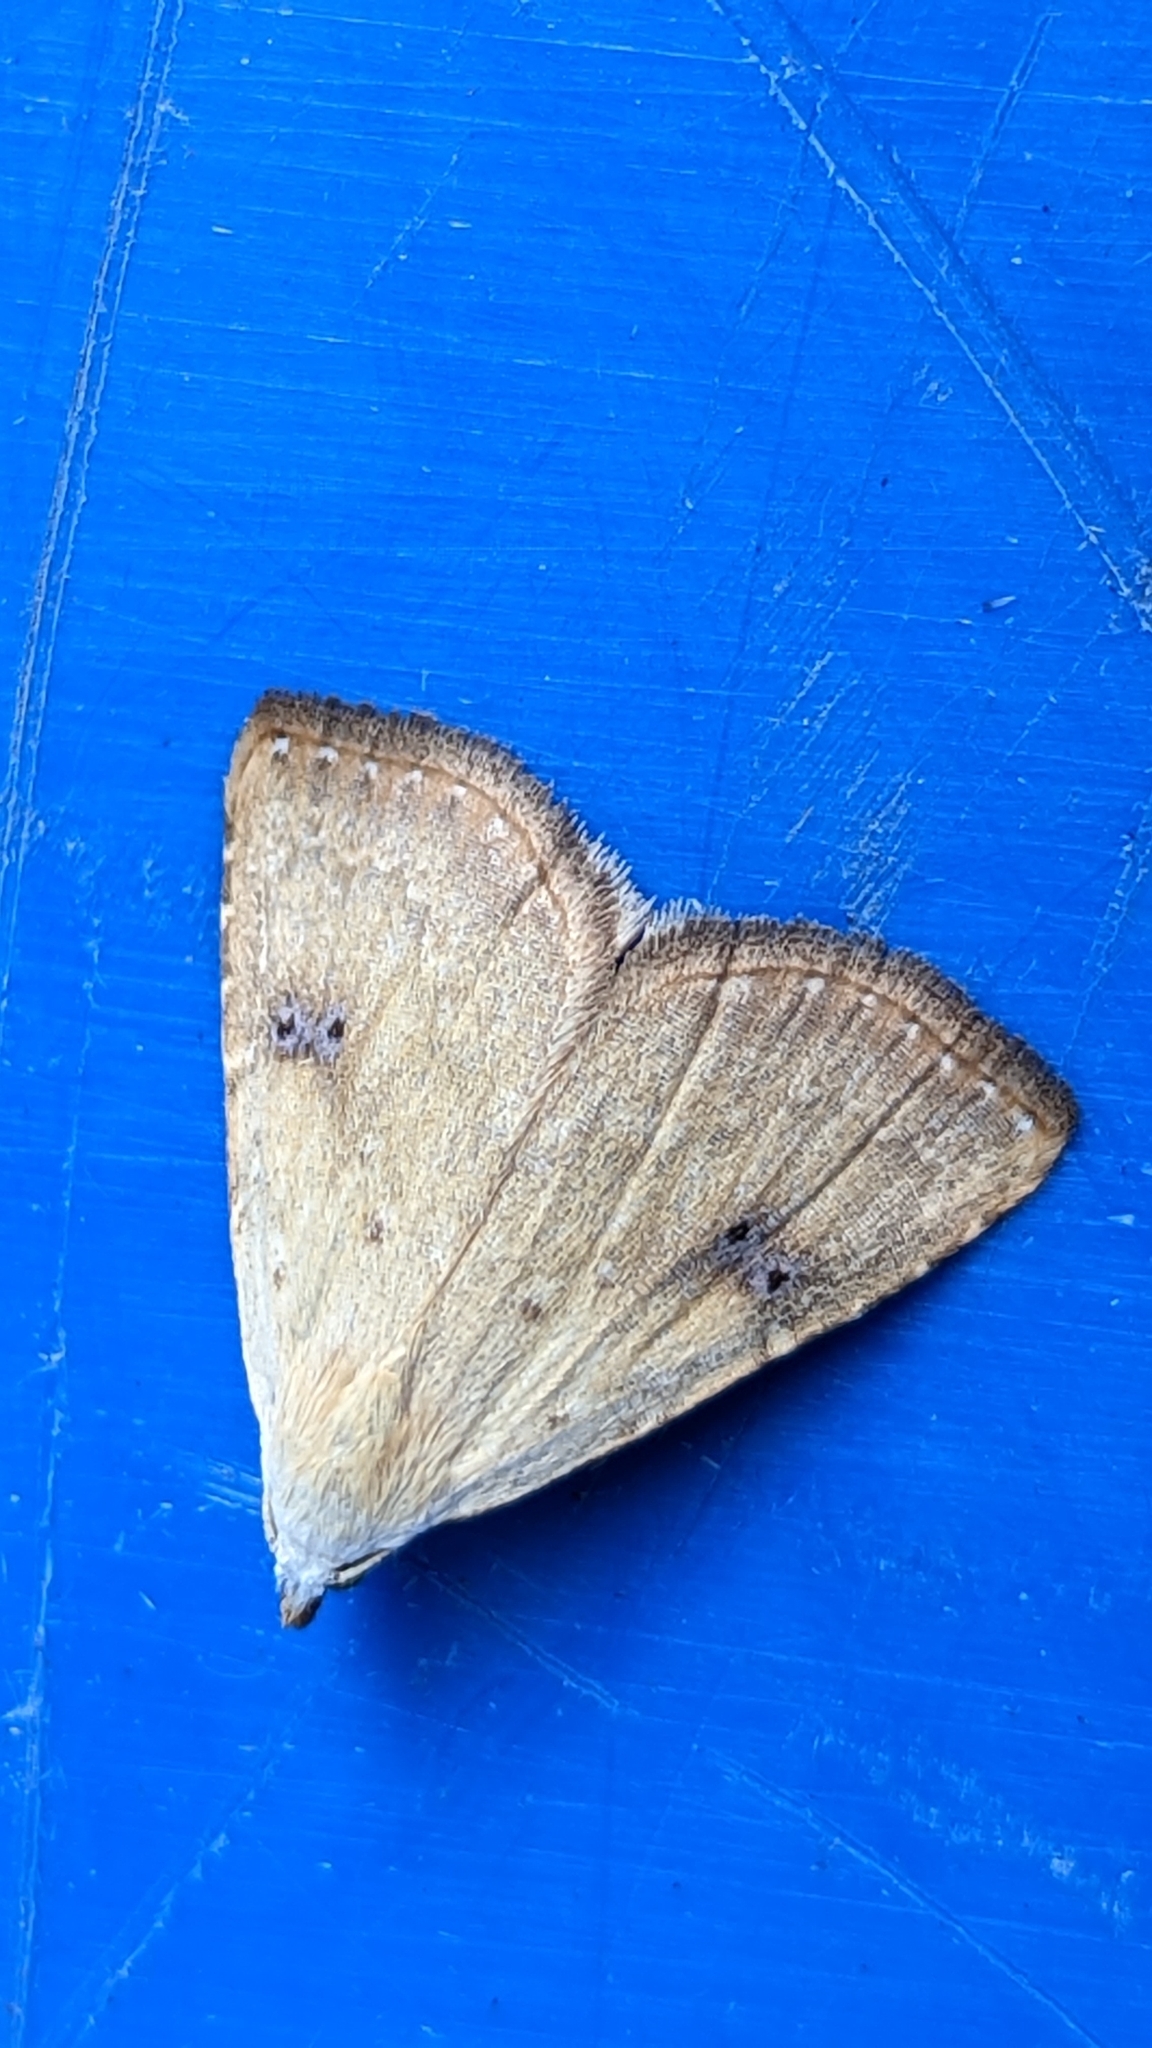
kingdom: Animalia
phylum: Arthropoda
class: Insecta
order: Lepidoptera
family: Erebidae
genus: Rivula
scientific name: Rivula sericealis
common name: Straw dot
